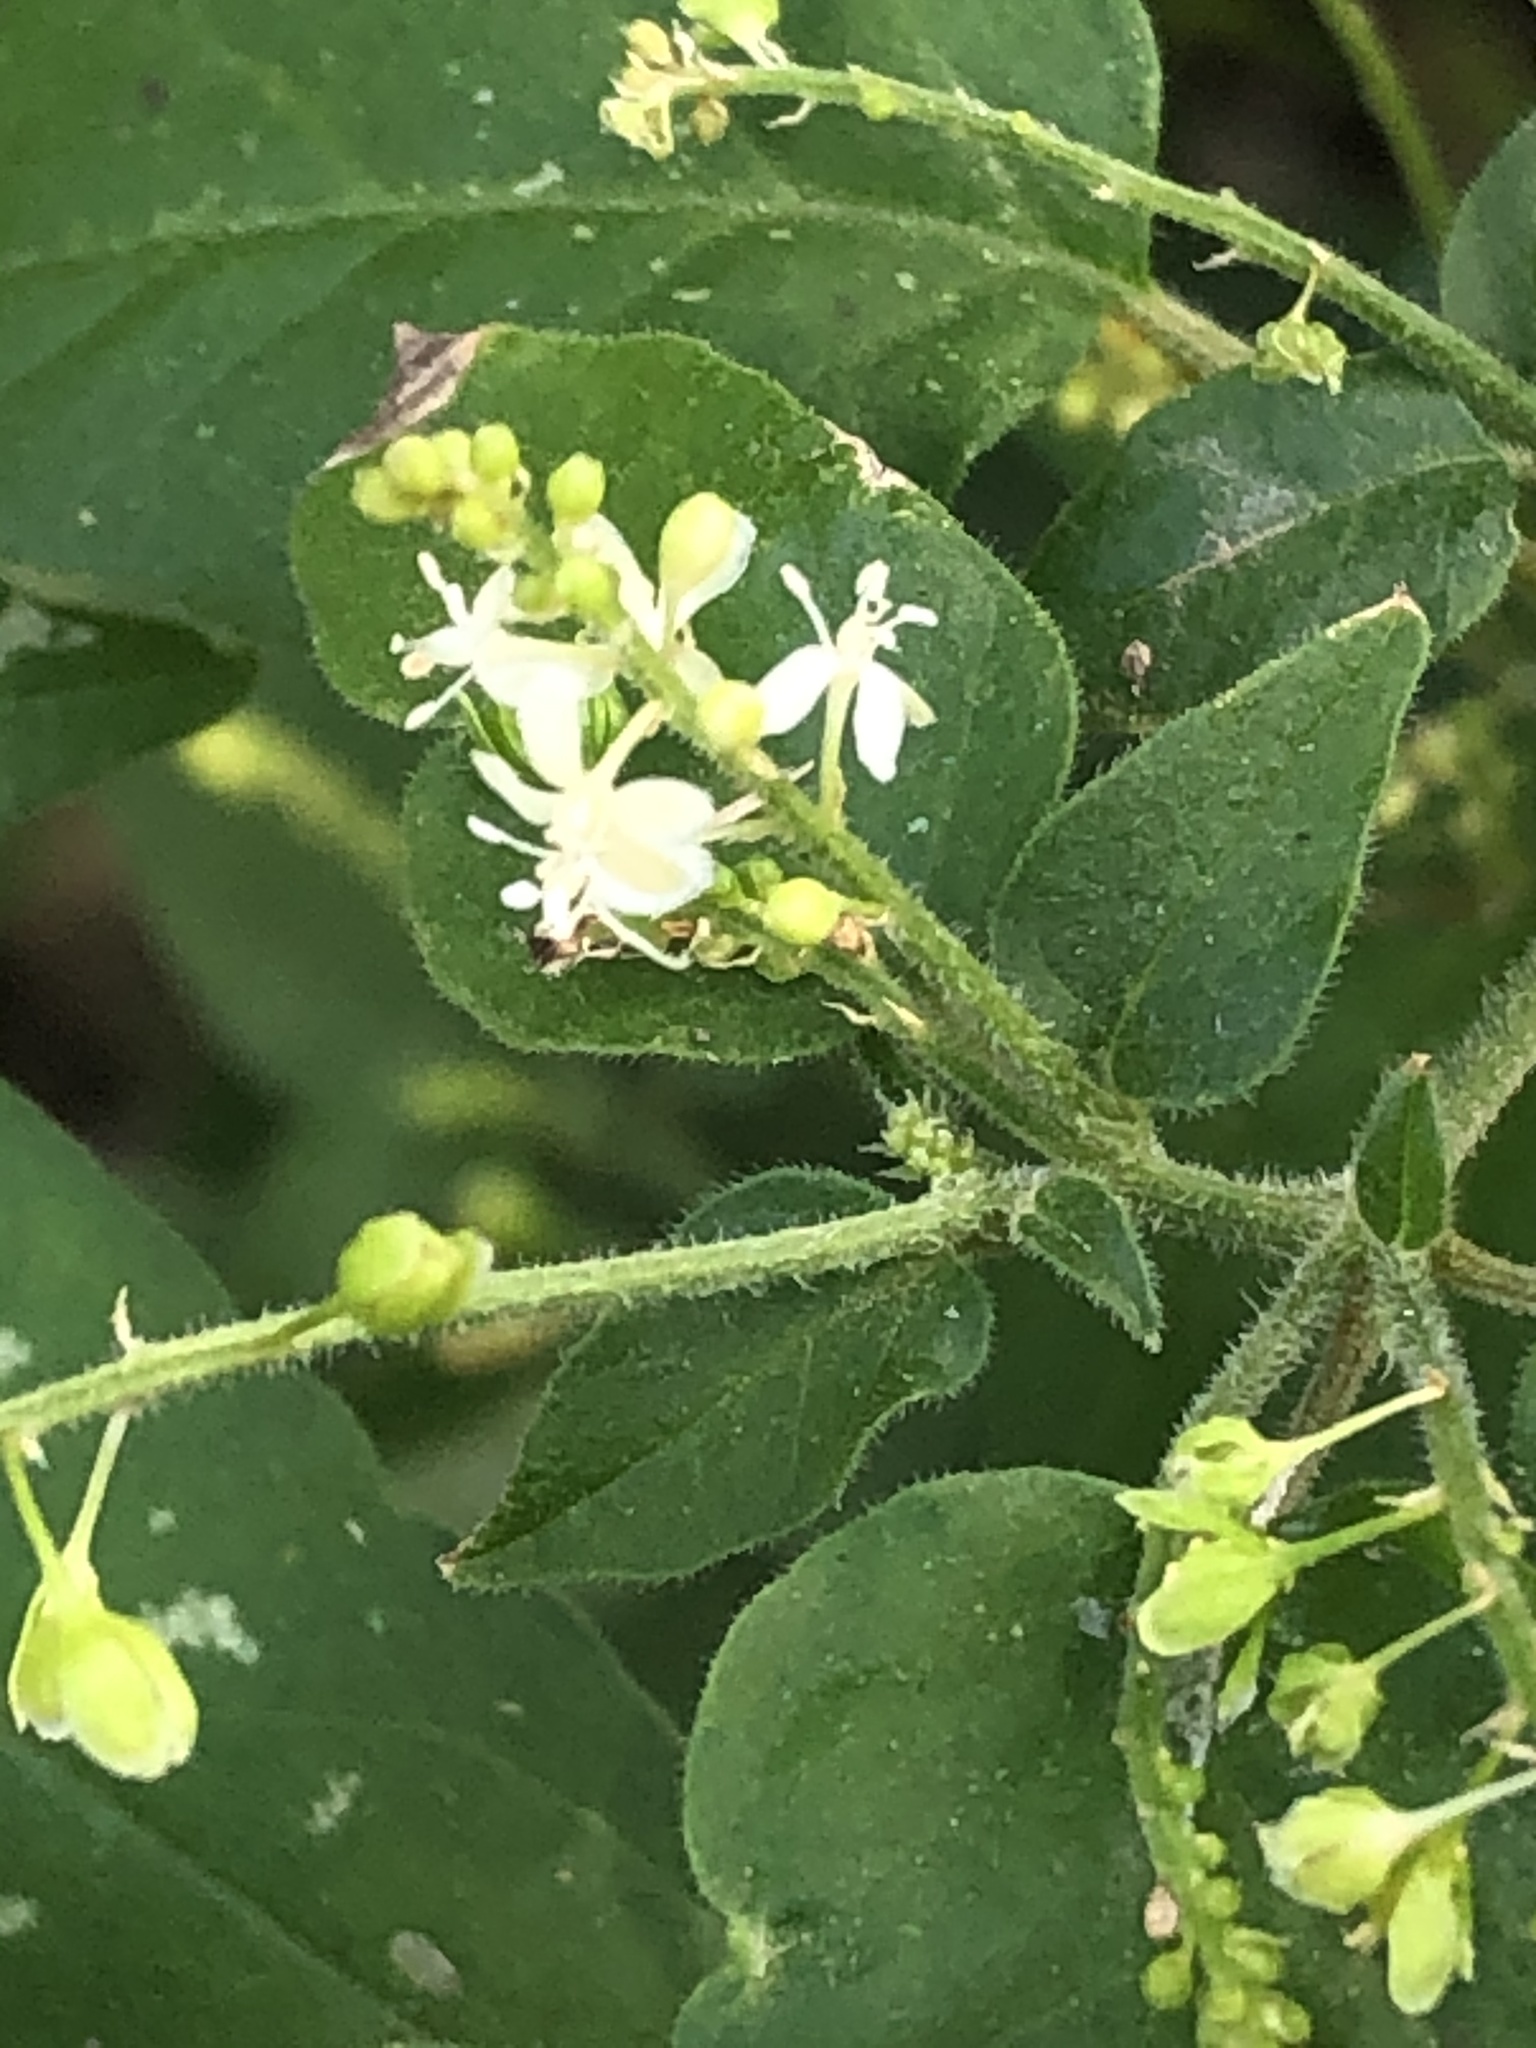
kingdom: Plantae
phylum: Tracheophyta
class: Magnoliopsida
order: Caryophyllales
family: Phytolaccaceae
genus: Rivina
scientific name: Rivina humilis
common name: Rougeplant
